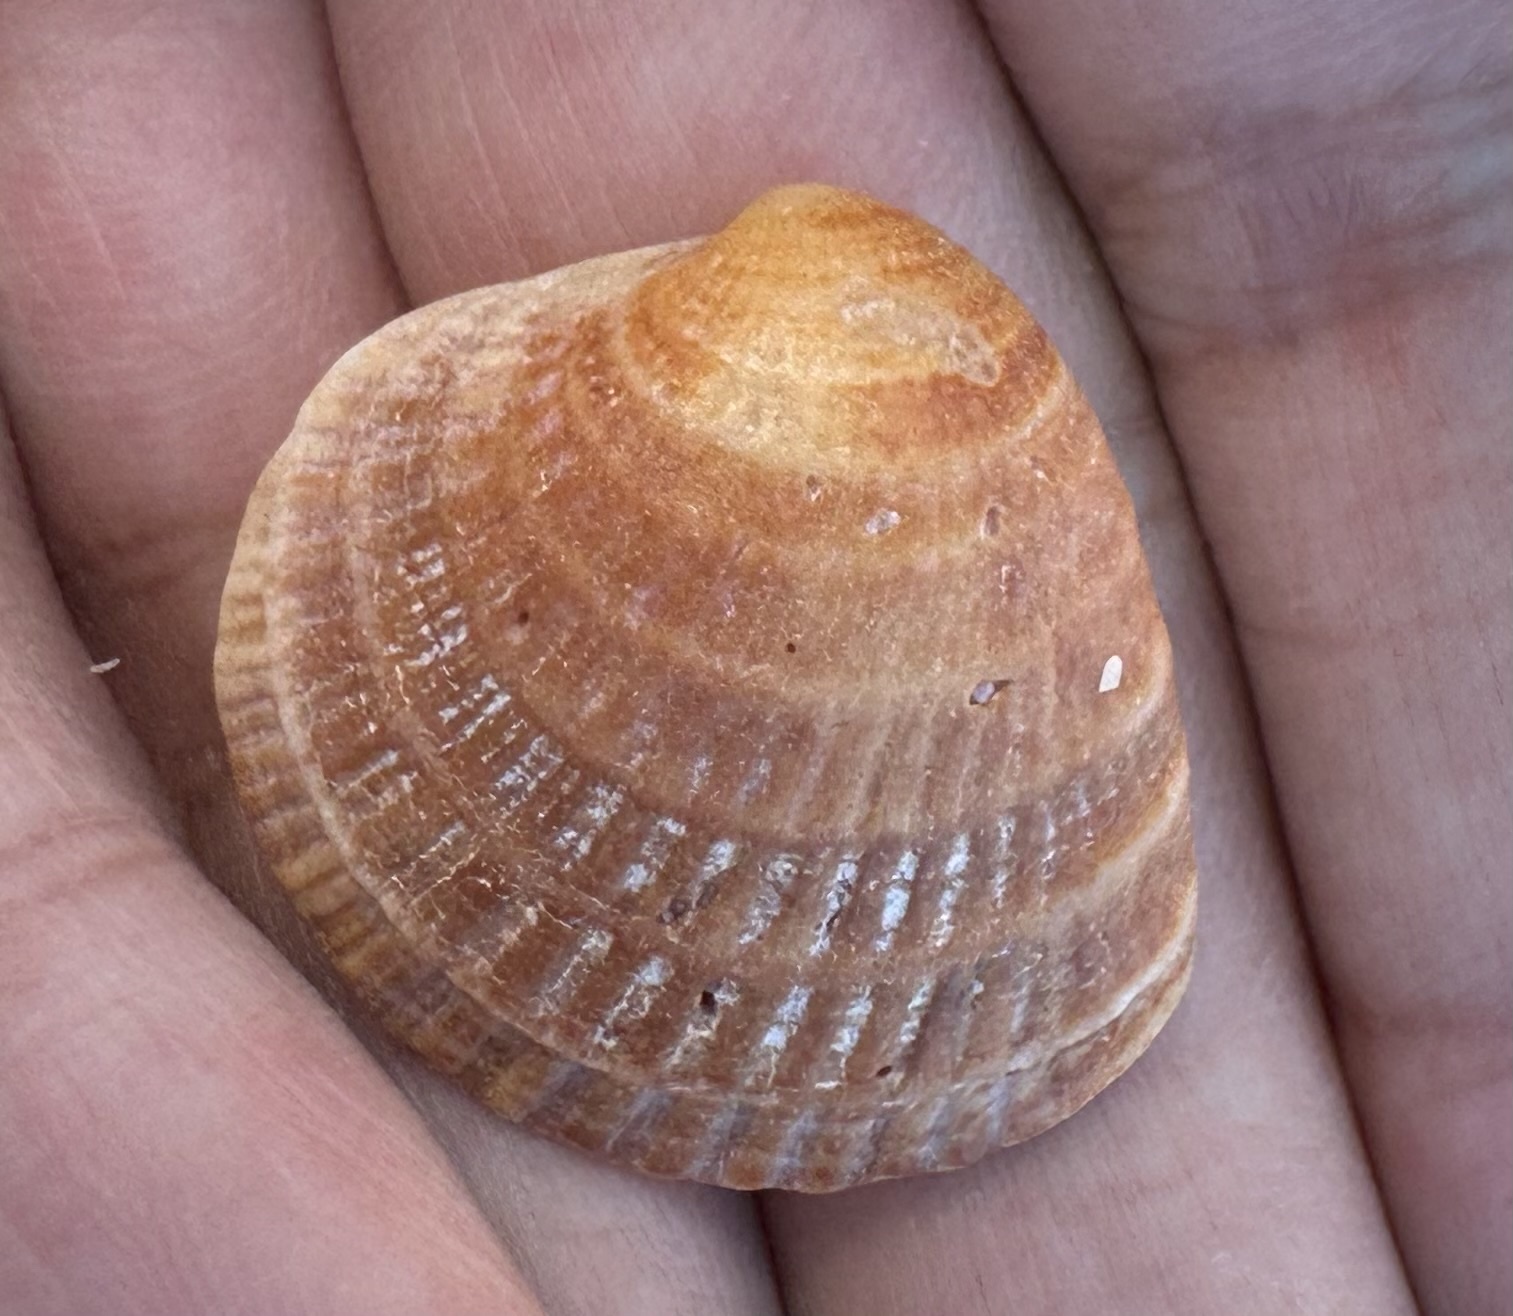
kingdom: Animalia
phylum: Mollusca
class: Bivalvia
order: Venerida
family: Veneridae
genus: Chione
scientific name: Chione elevata
